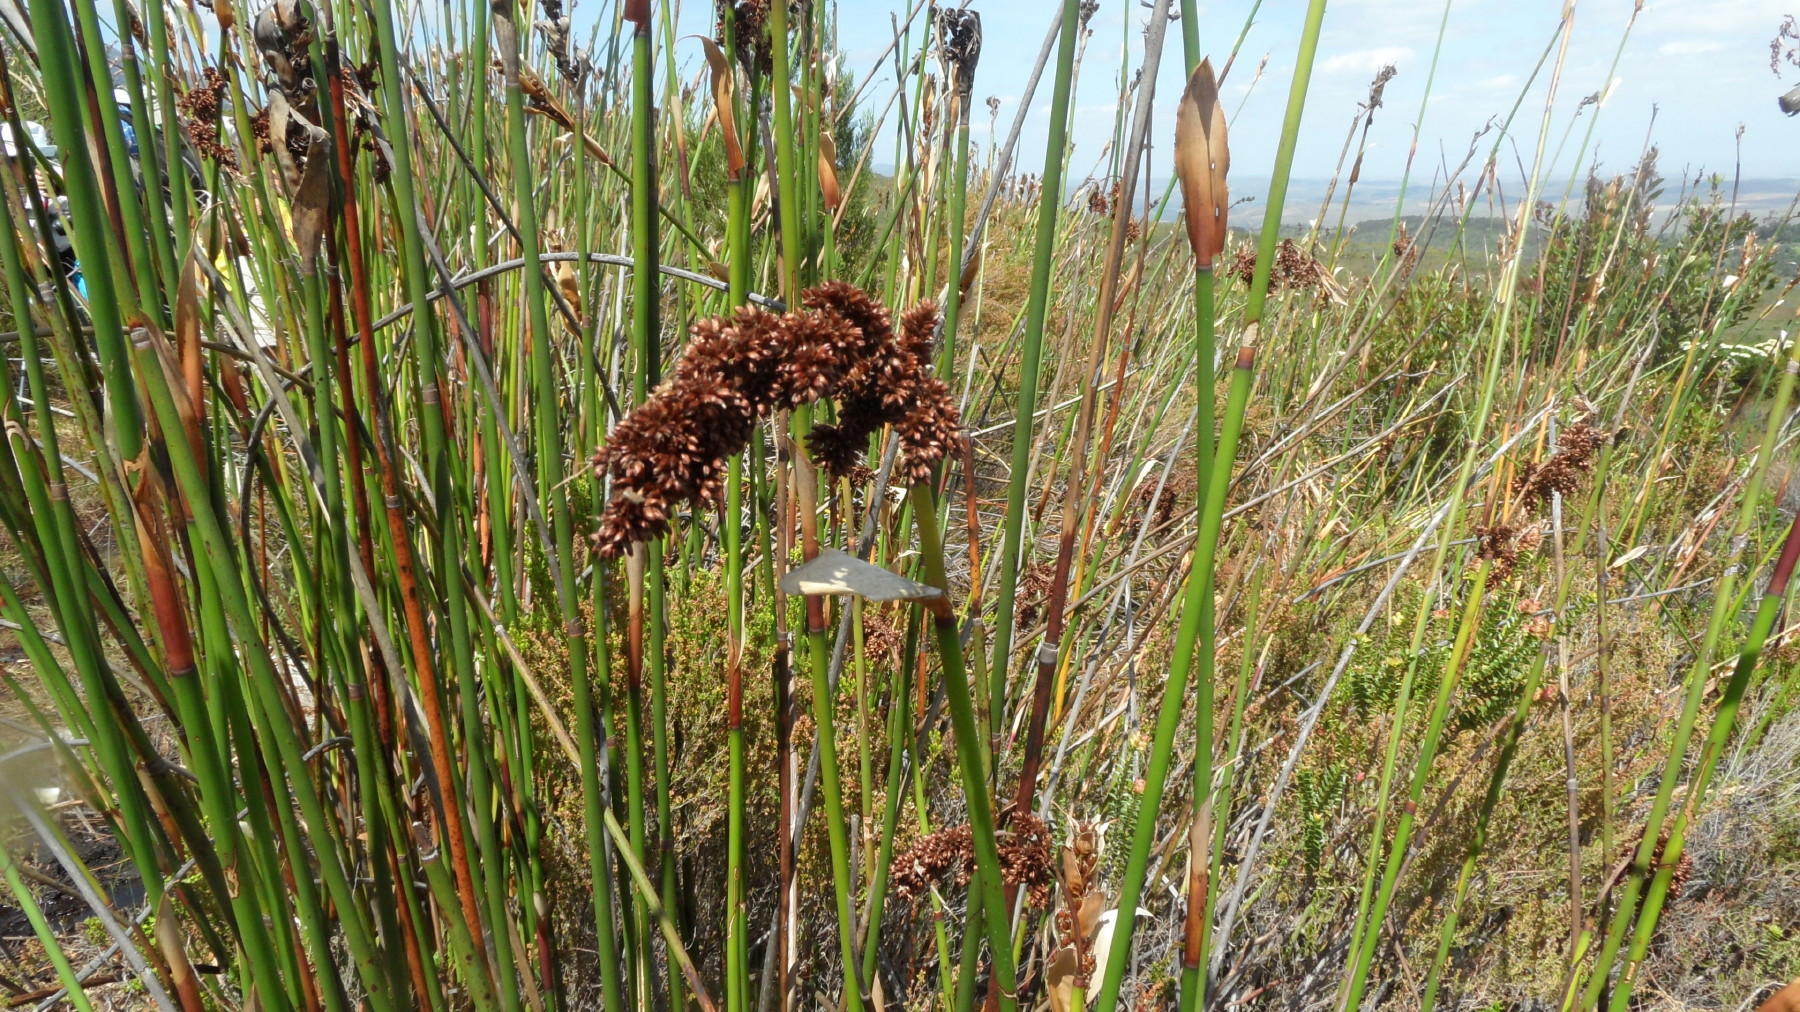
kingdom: Plantae
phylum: Tracheophyta
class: Liliopsida
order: Poales
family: Restionaceae
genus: Elegia
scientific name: Elegia mucronata
